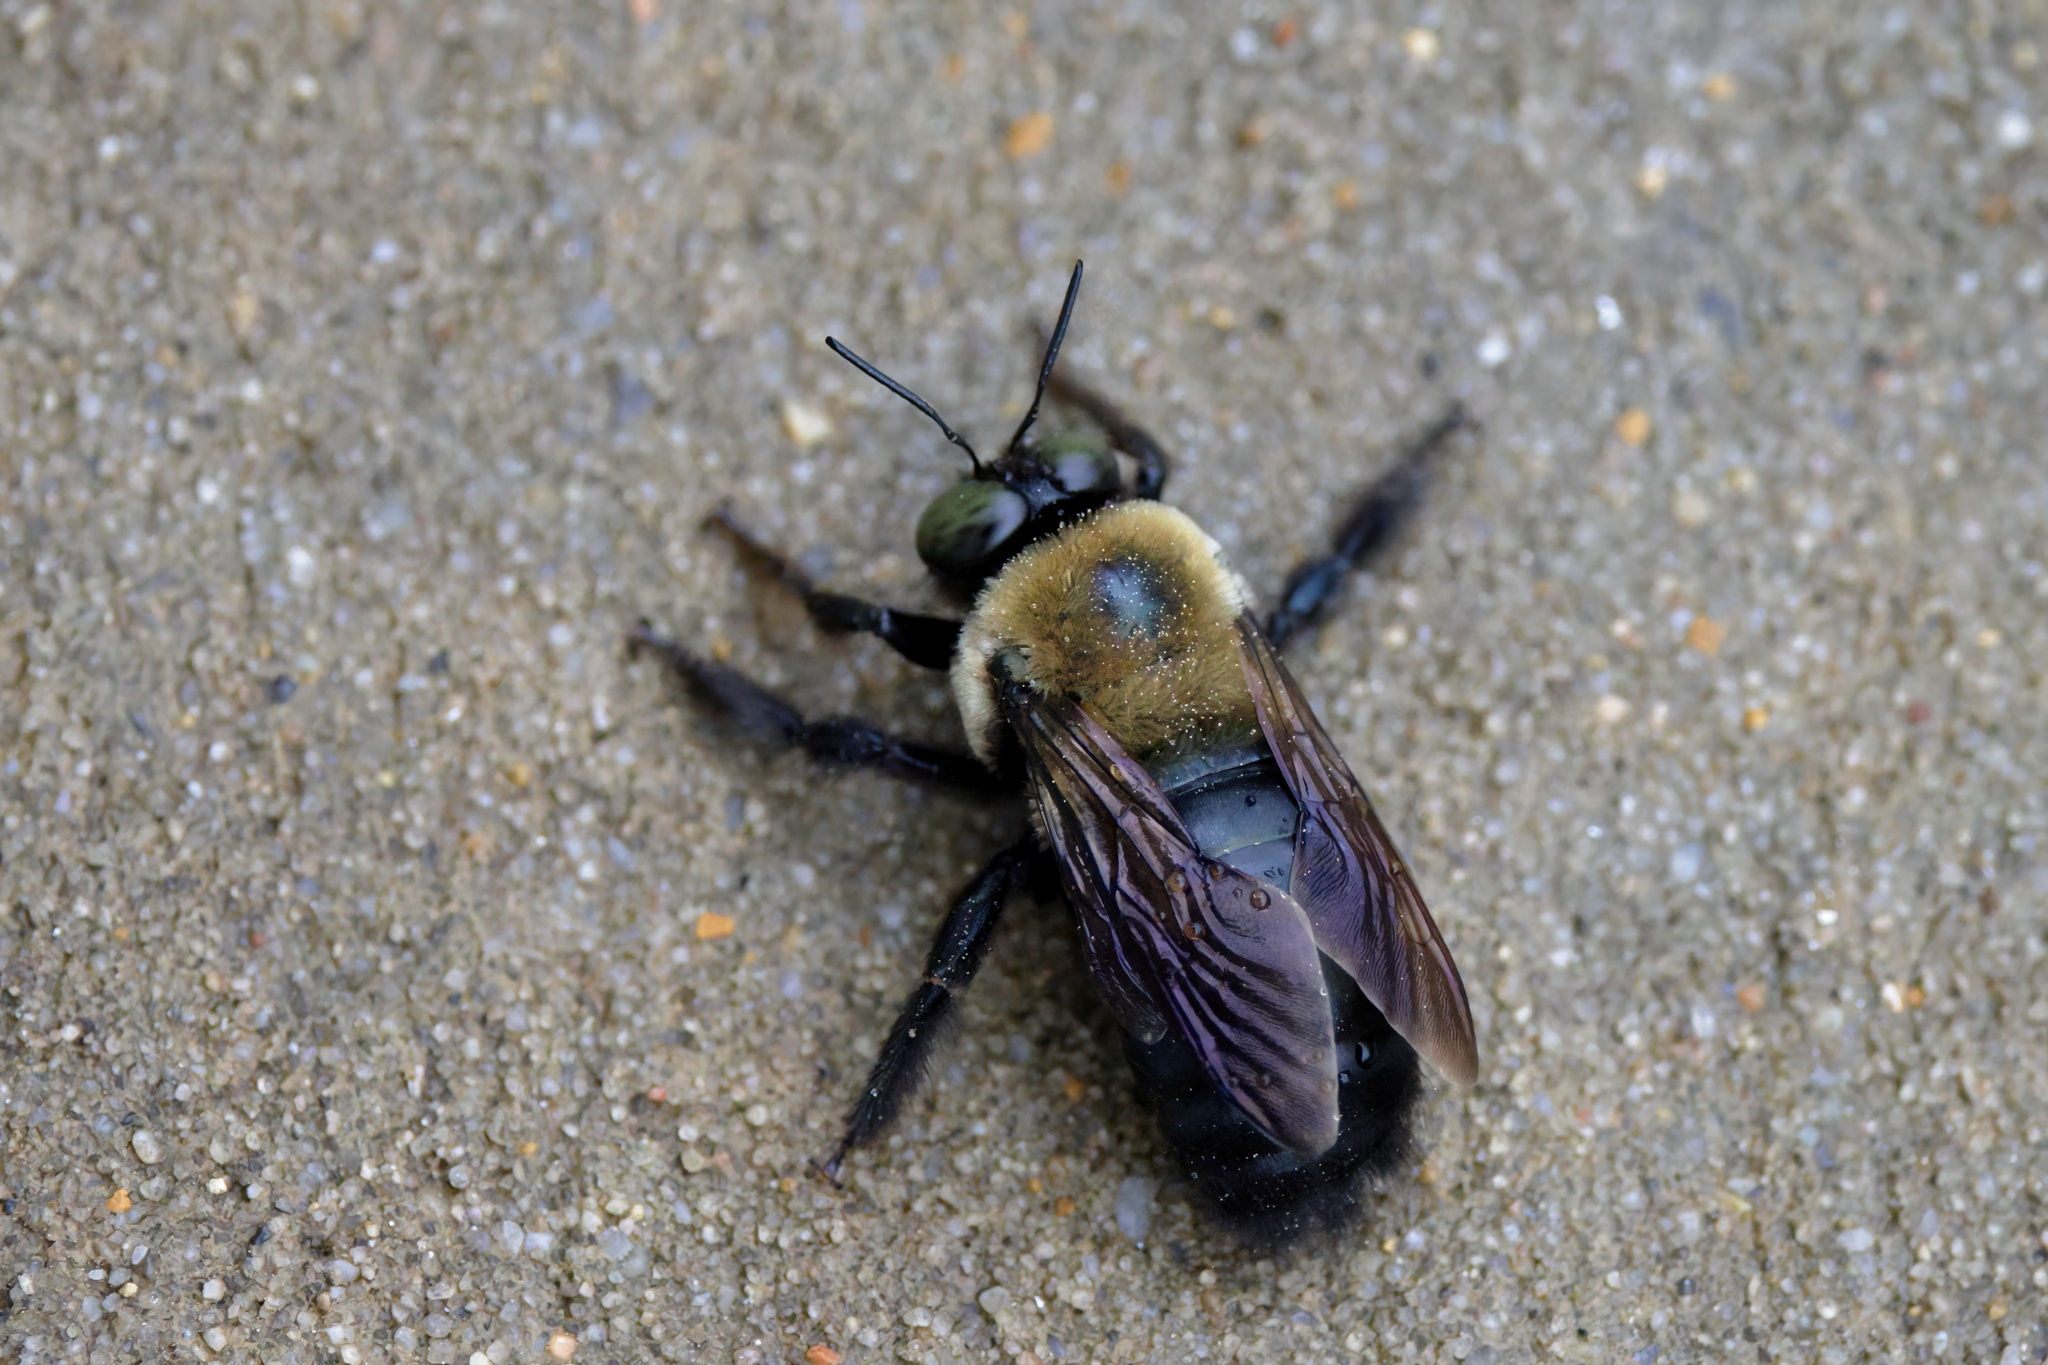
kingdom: Animalia
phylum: Arthropoda
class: Insecta
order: Hymenoptera
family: Apidae
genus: Xylocopa
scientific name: Xylocopa virginica
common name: Carpenter bee
